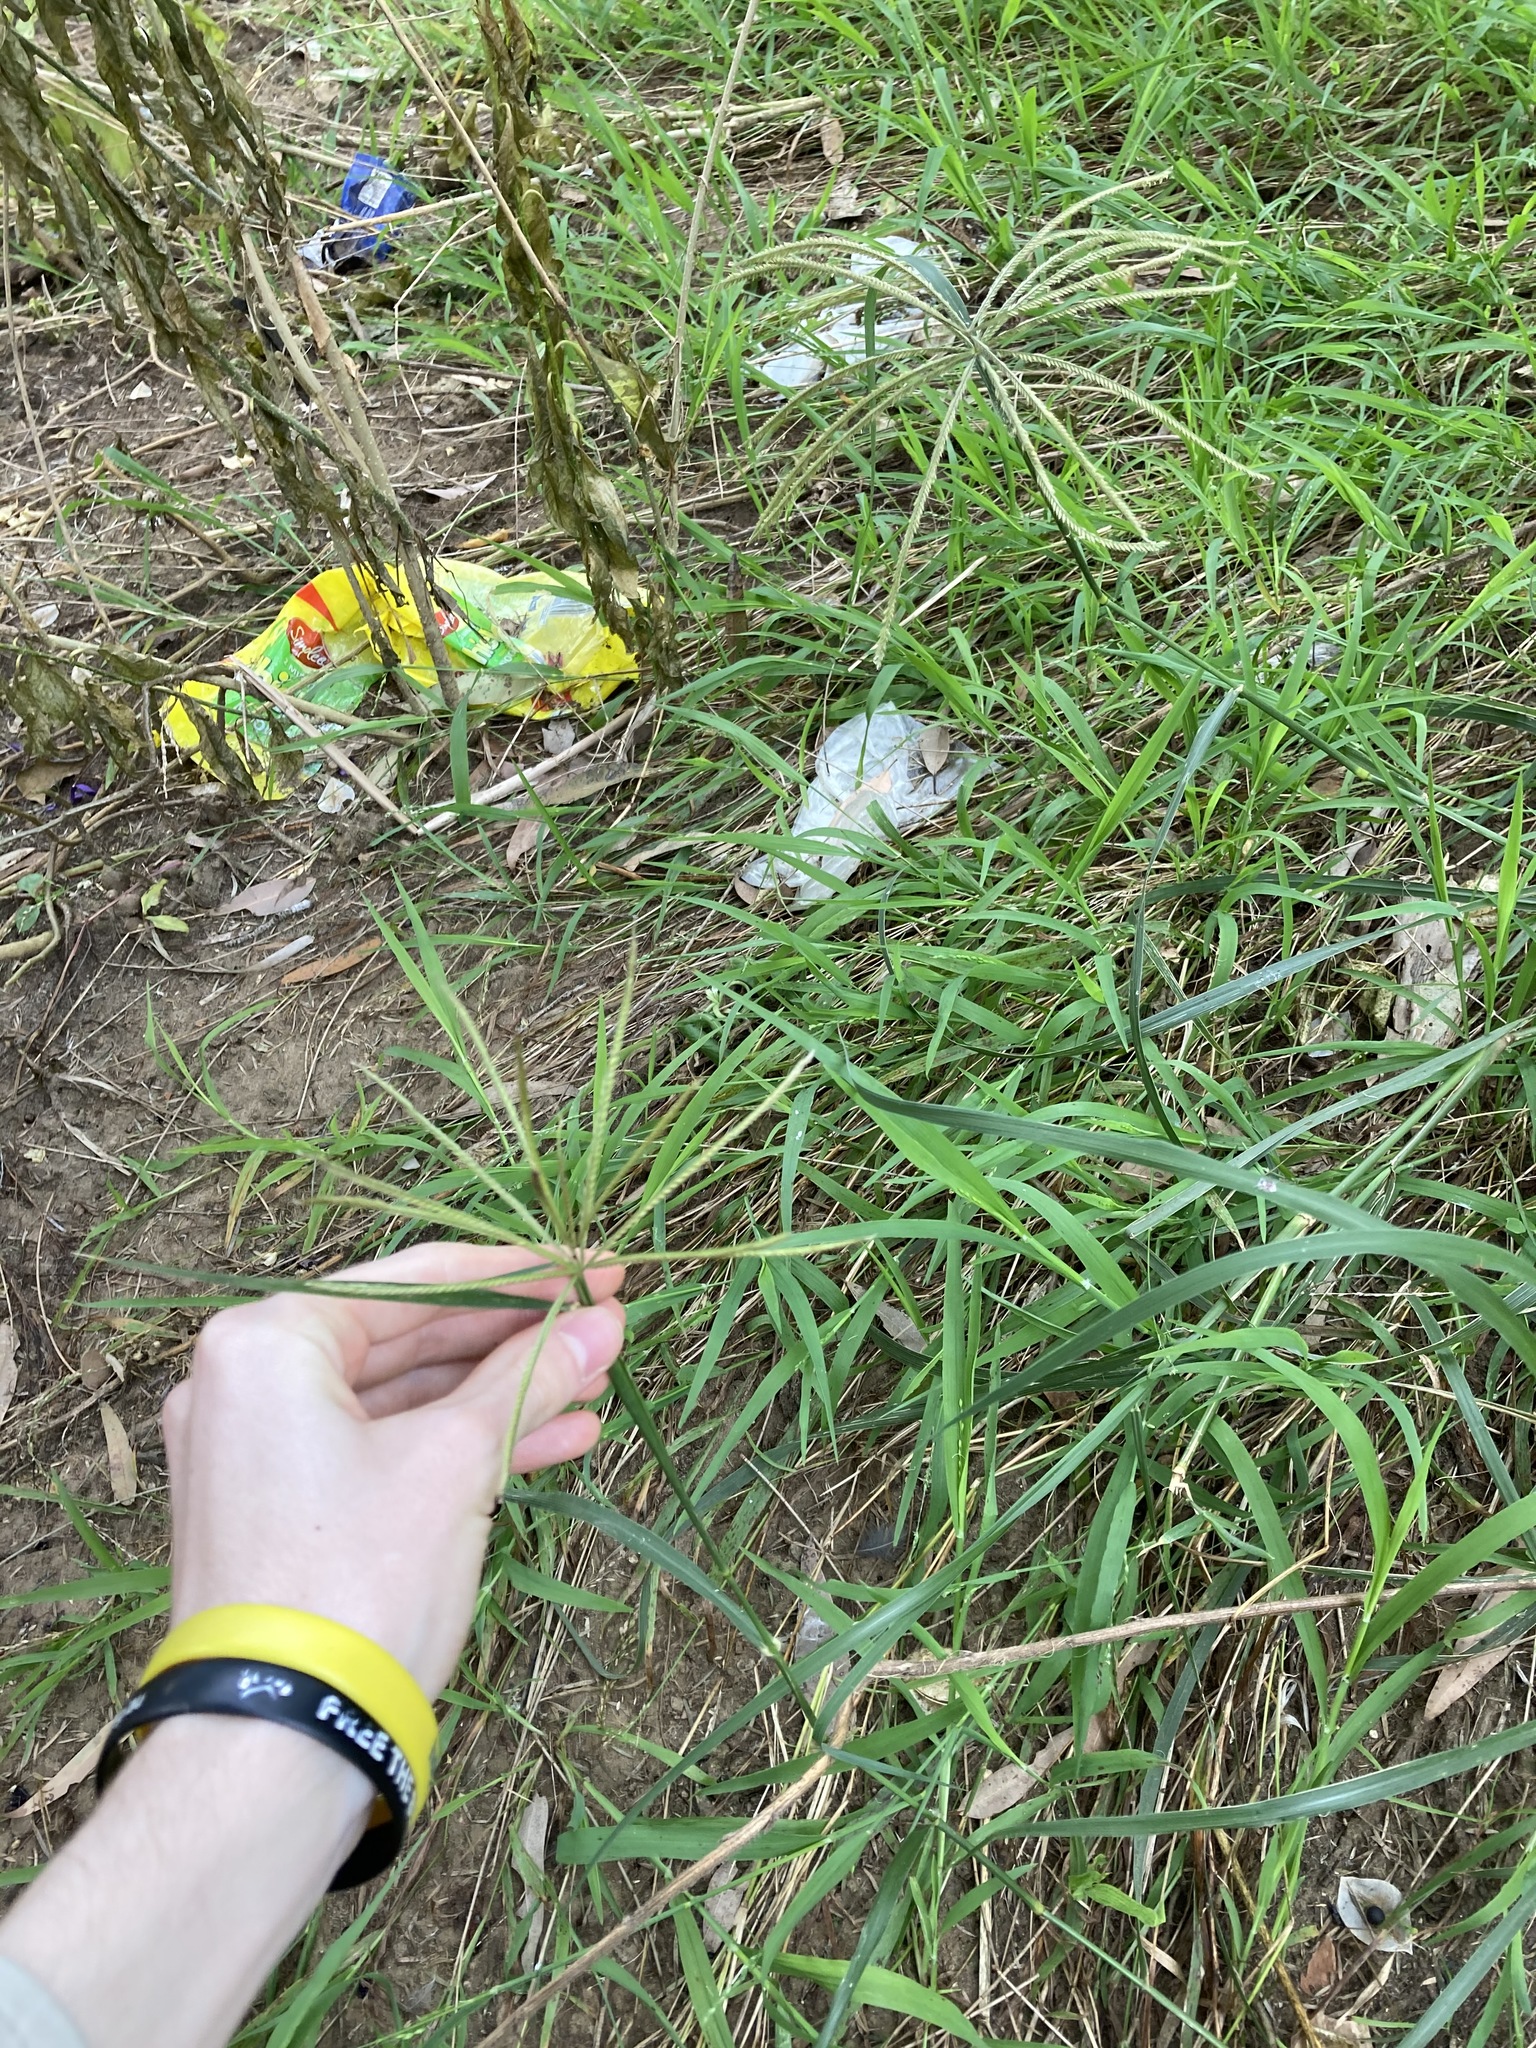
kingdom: Plantae
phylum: Tracheophyta
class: Liliopsida
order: Poales
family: Poaceae
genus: Chloris
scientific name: Chloris gayana
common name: Rhodes grass
